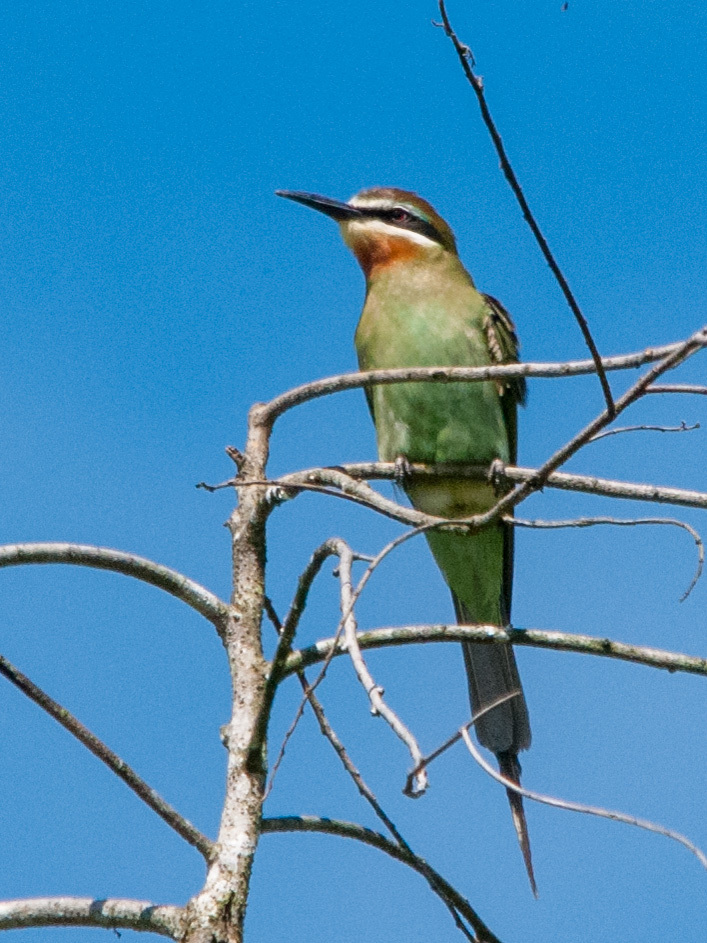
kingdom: Animalia
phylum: Chordata
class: Aves
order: Coraciiformes
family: Meropidae
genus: Merops
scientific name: Merops superciliosus
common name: Olive bee-eater
